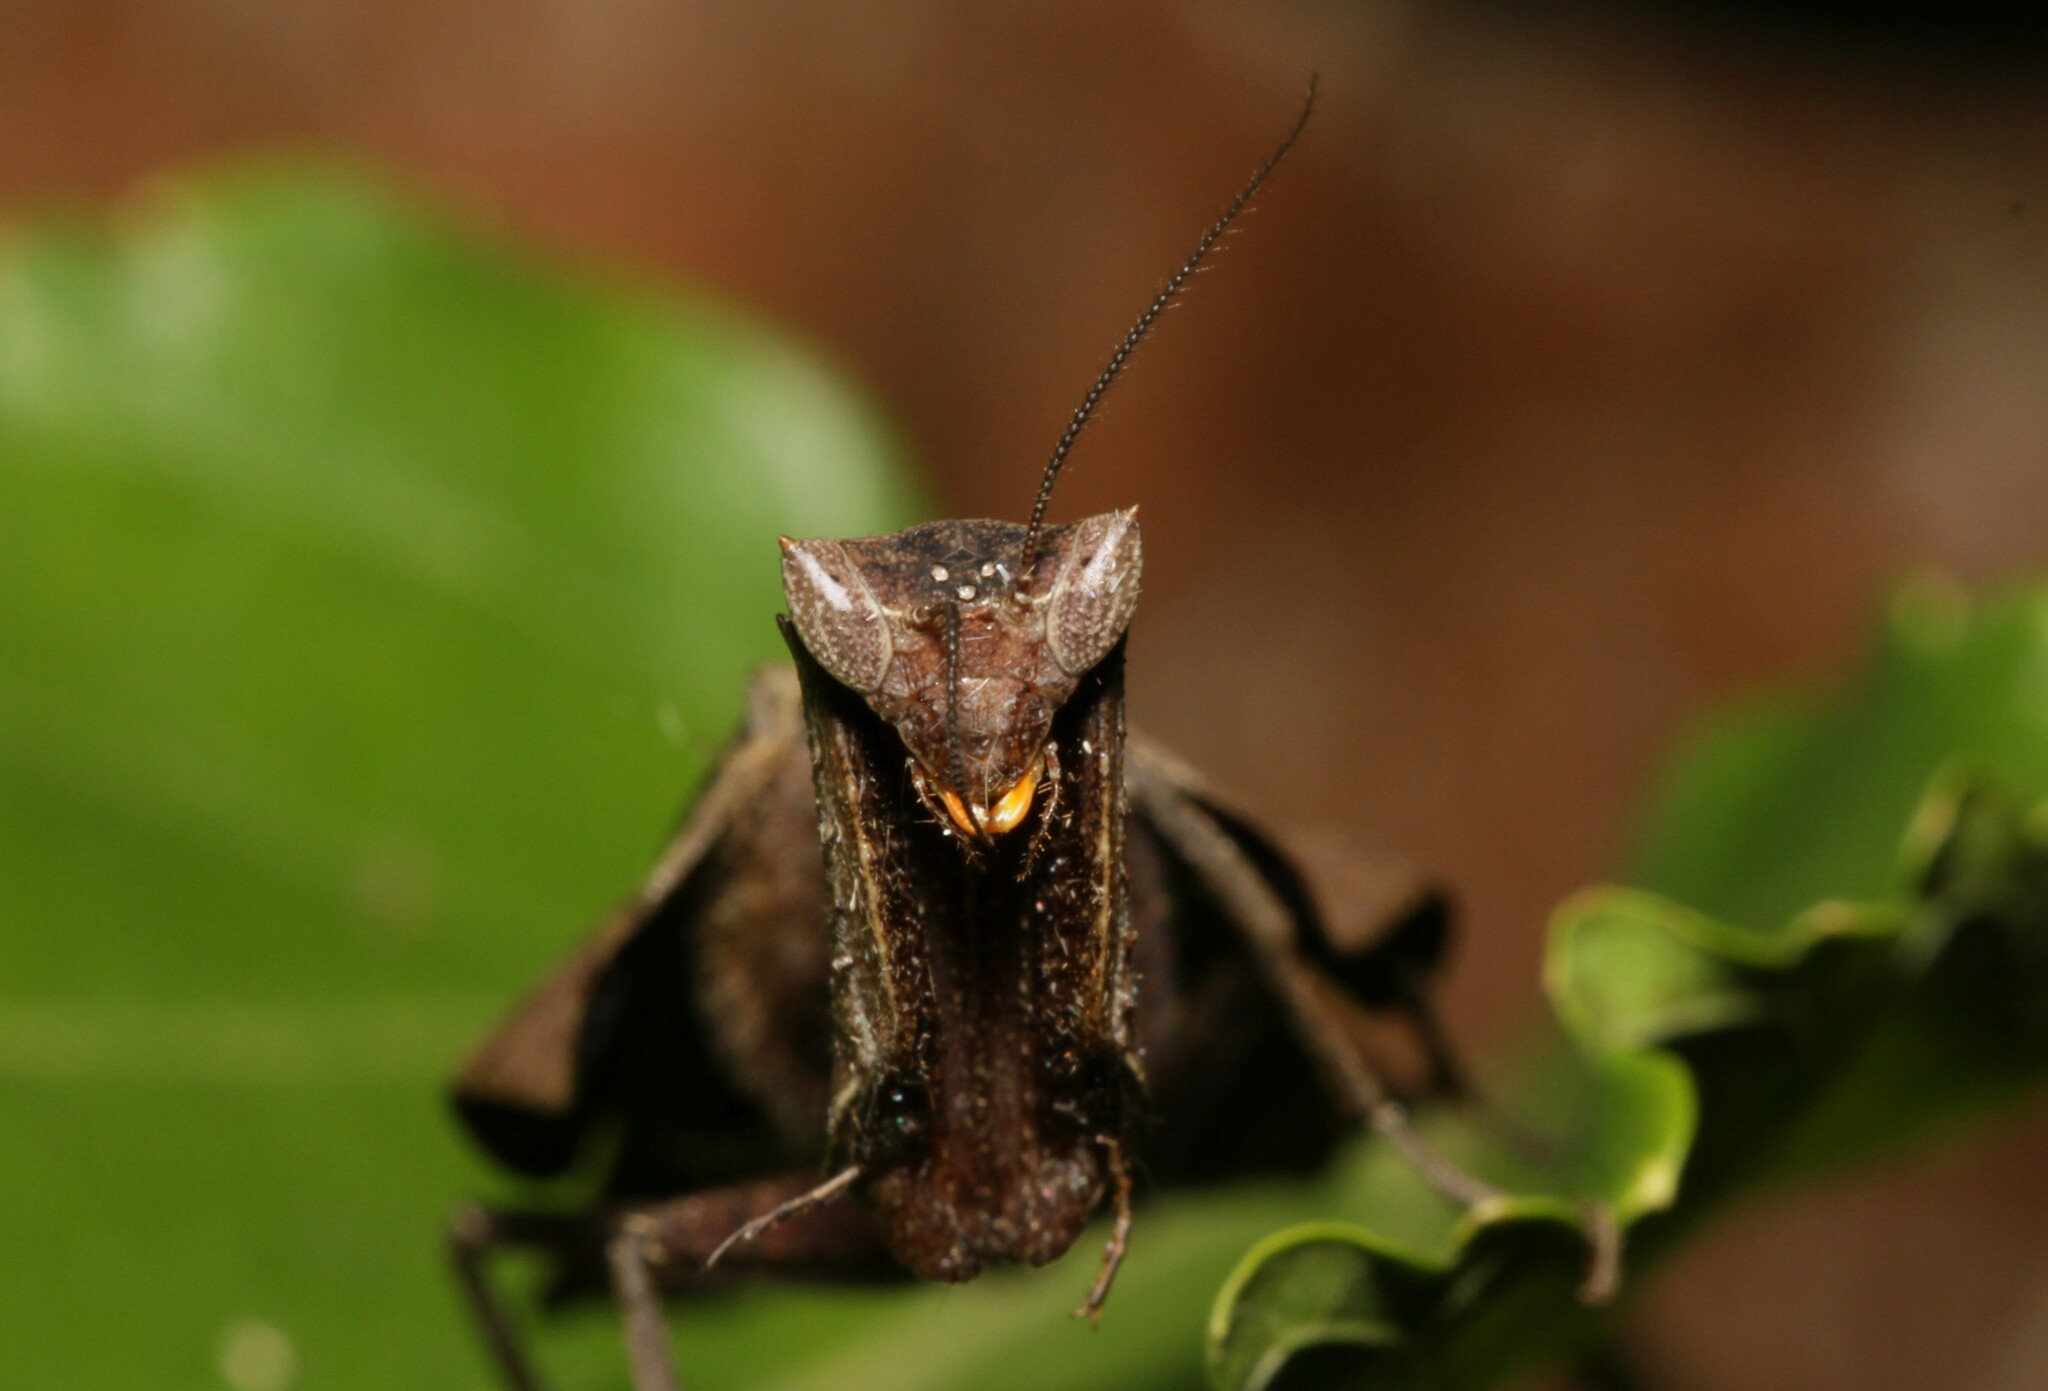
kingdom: Animalia
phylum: Arthropoda
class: Insecta
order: Mantodea
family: Acanthopidae
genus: Acanthops
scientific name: Acanthops erosula
